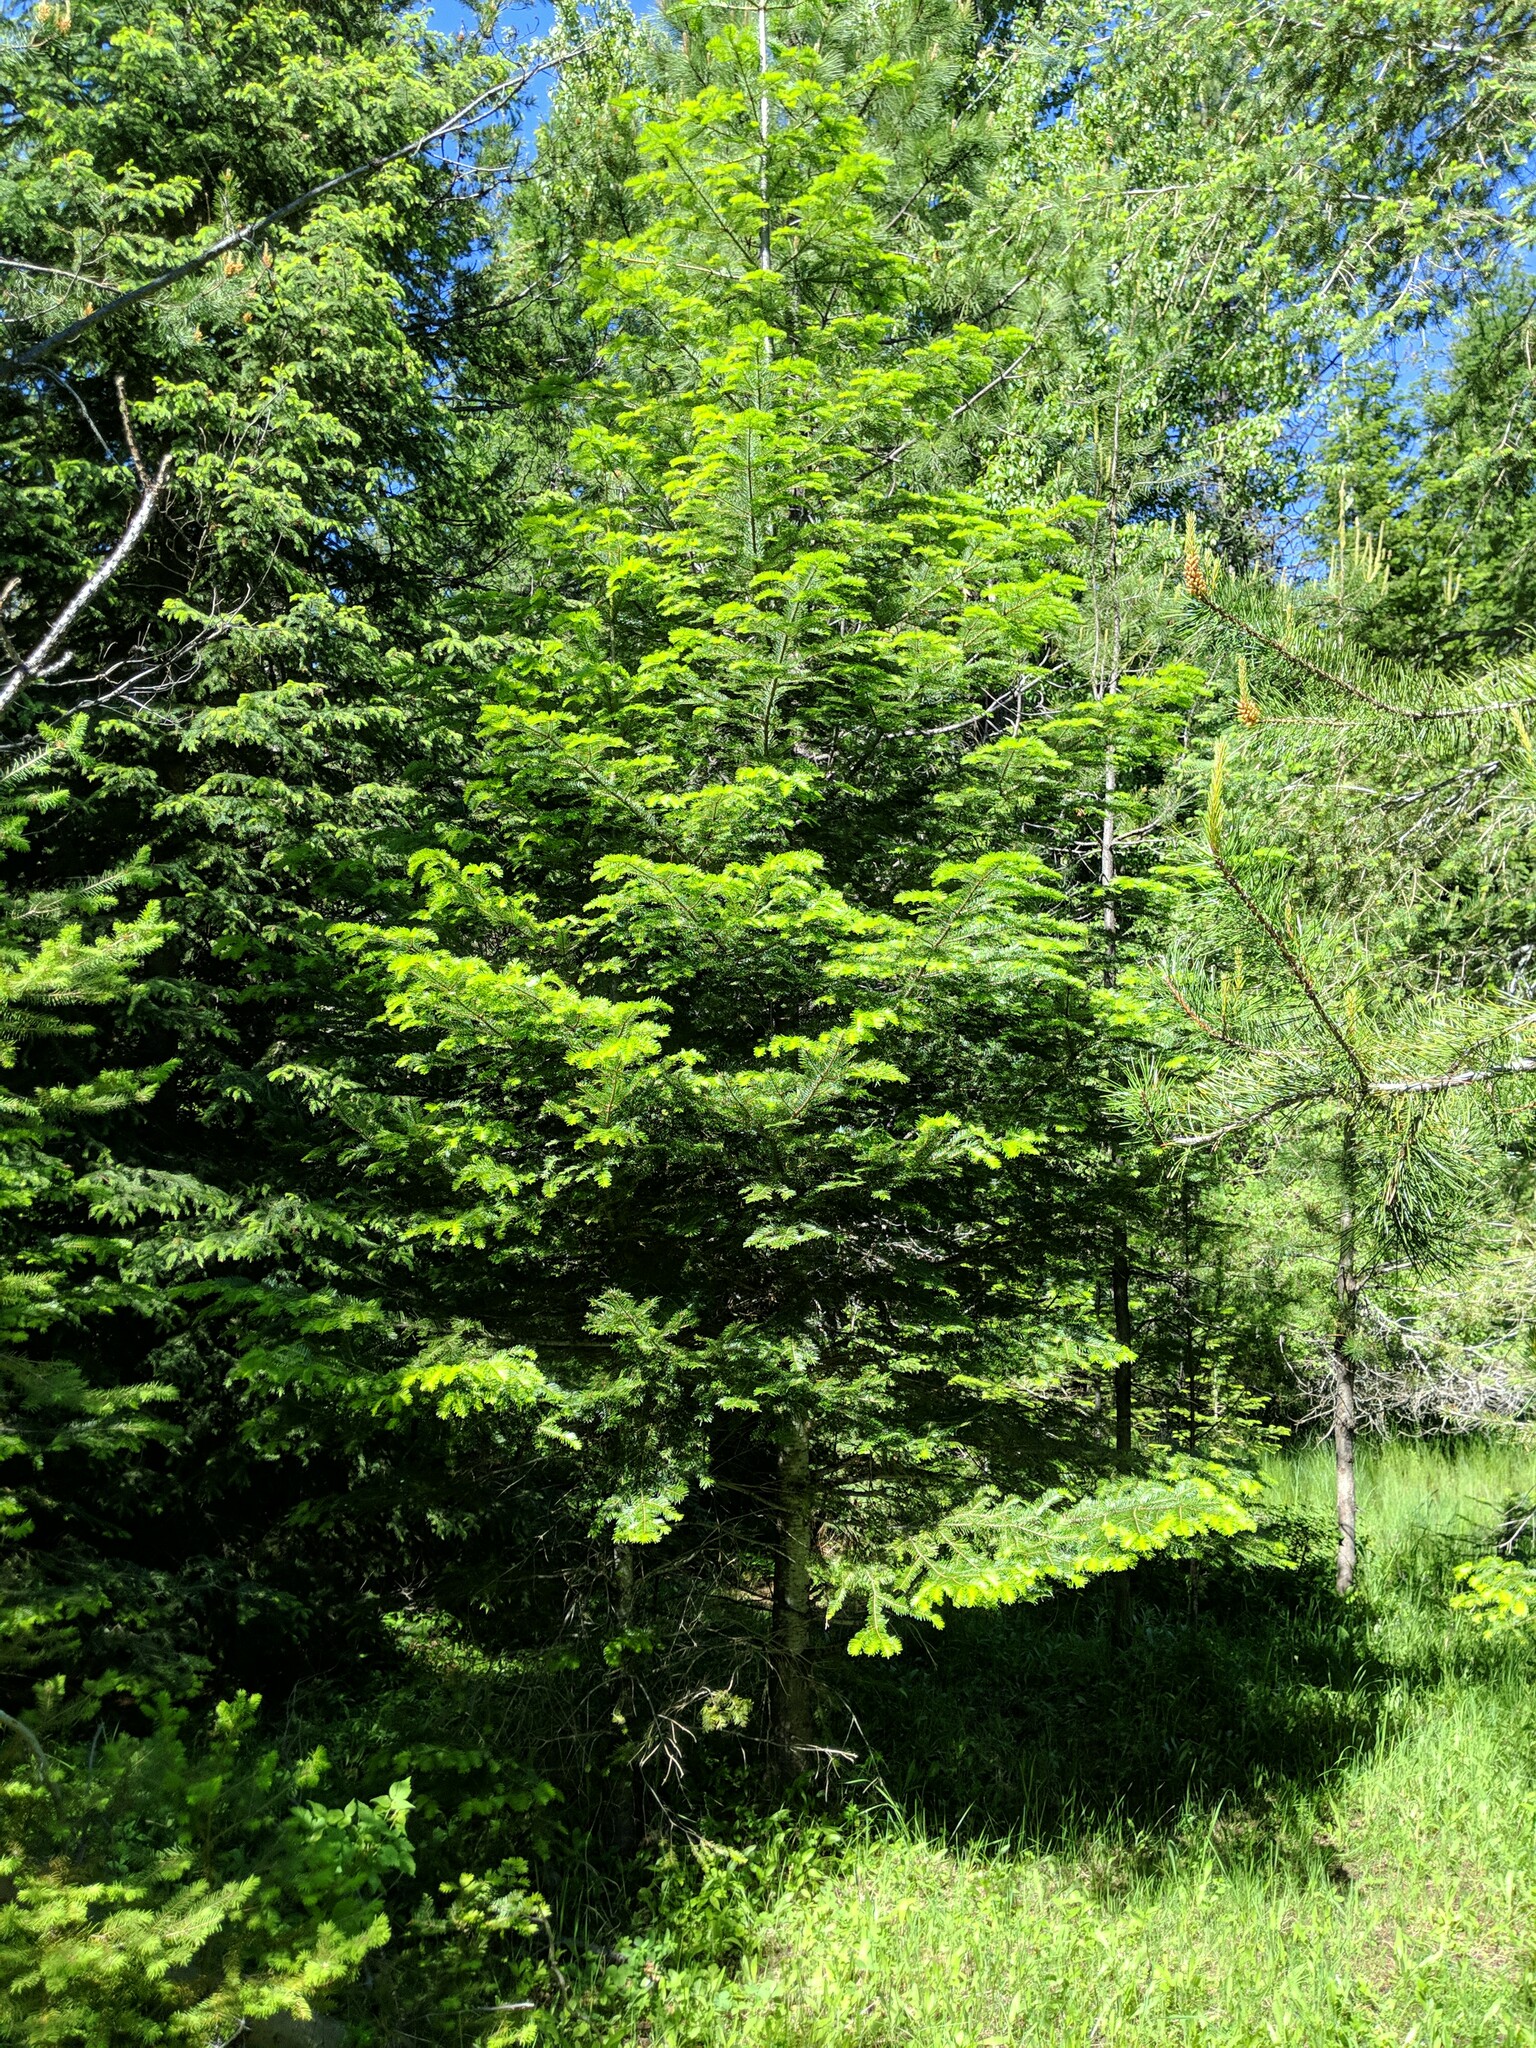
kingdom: Plantae
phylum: Tracheophyta
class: Pinopsida
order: Pinales
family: Pinaceae
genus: Abies
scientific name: Abies grandis
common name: Giant fir
